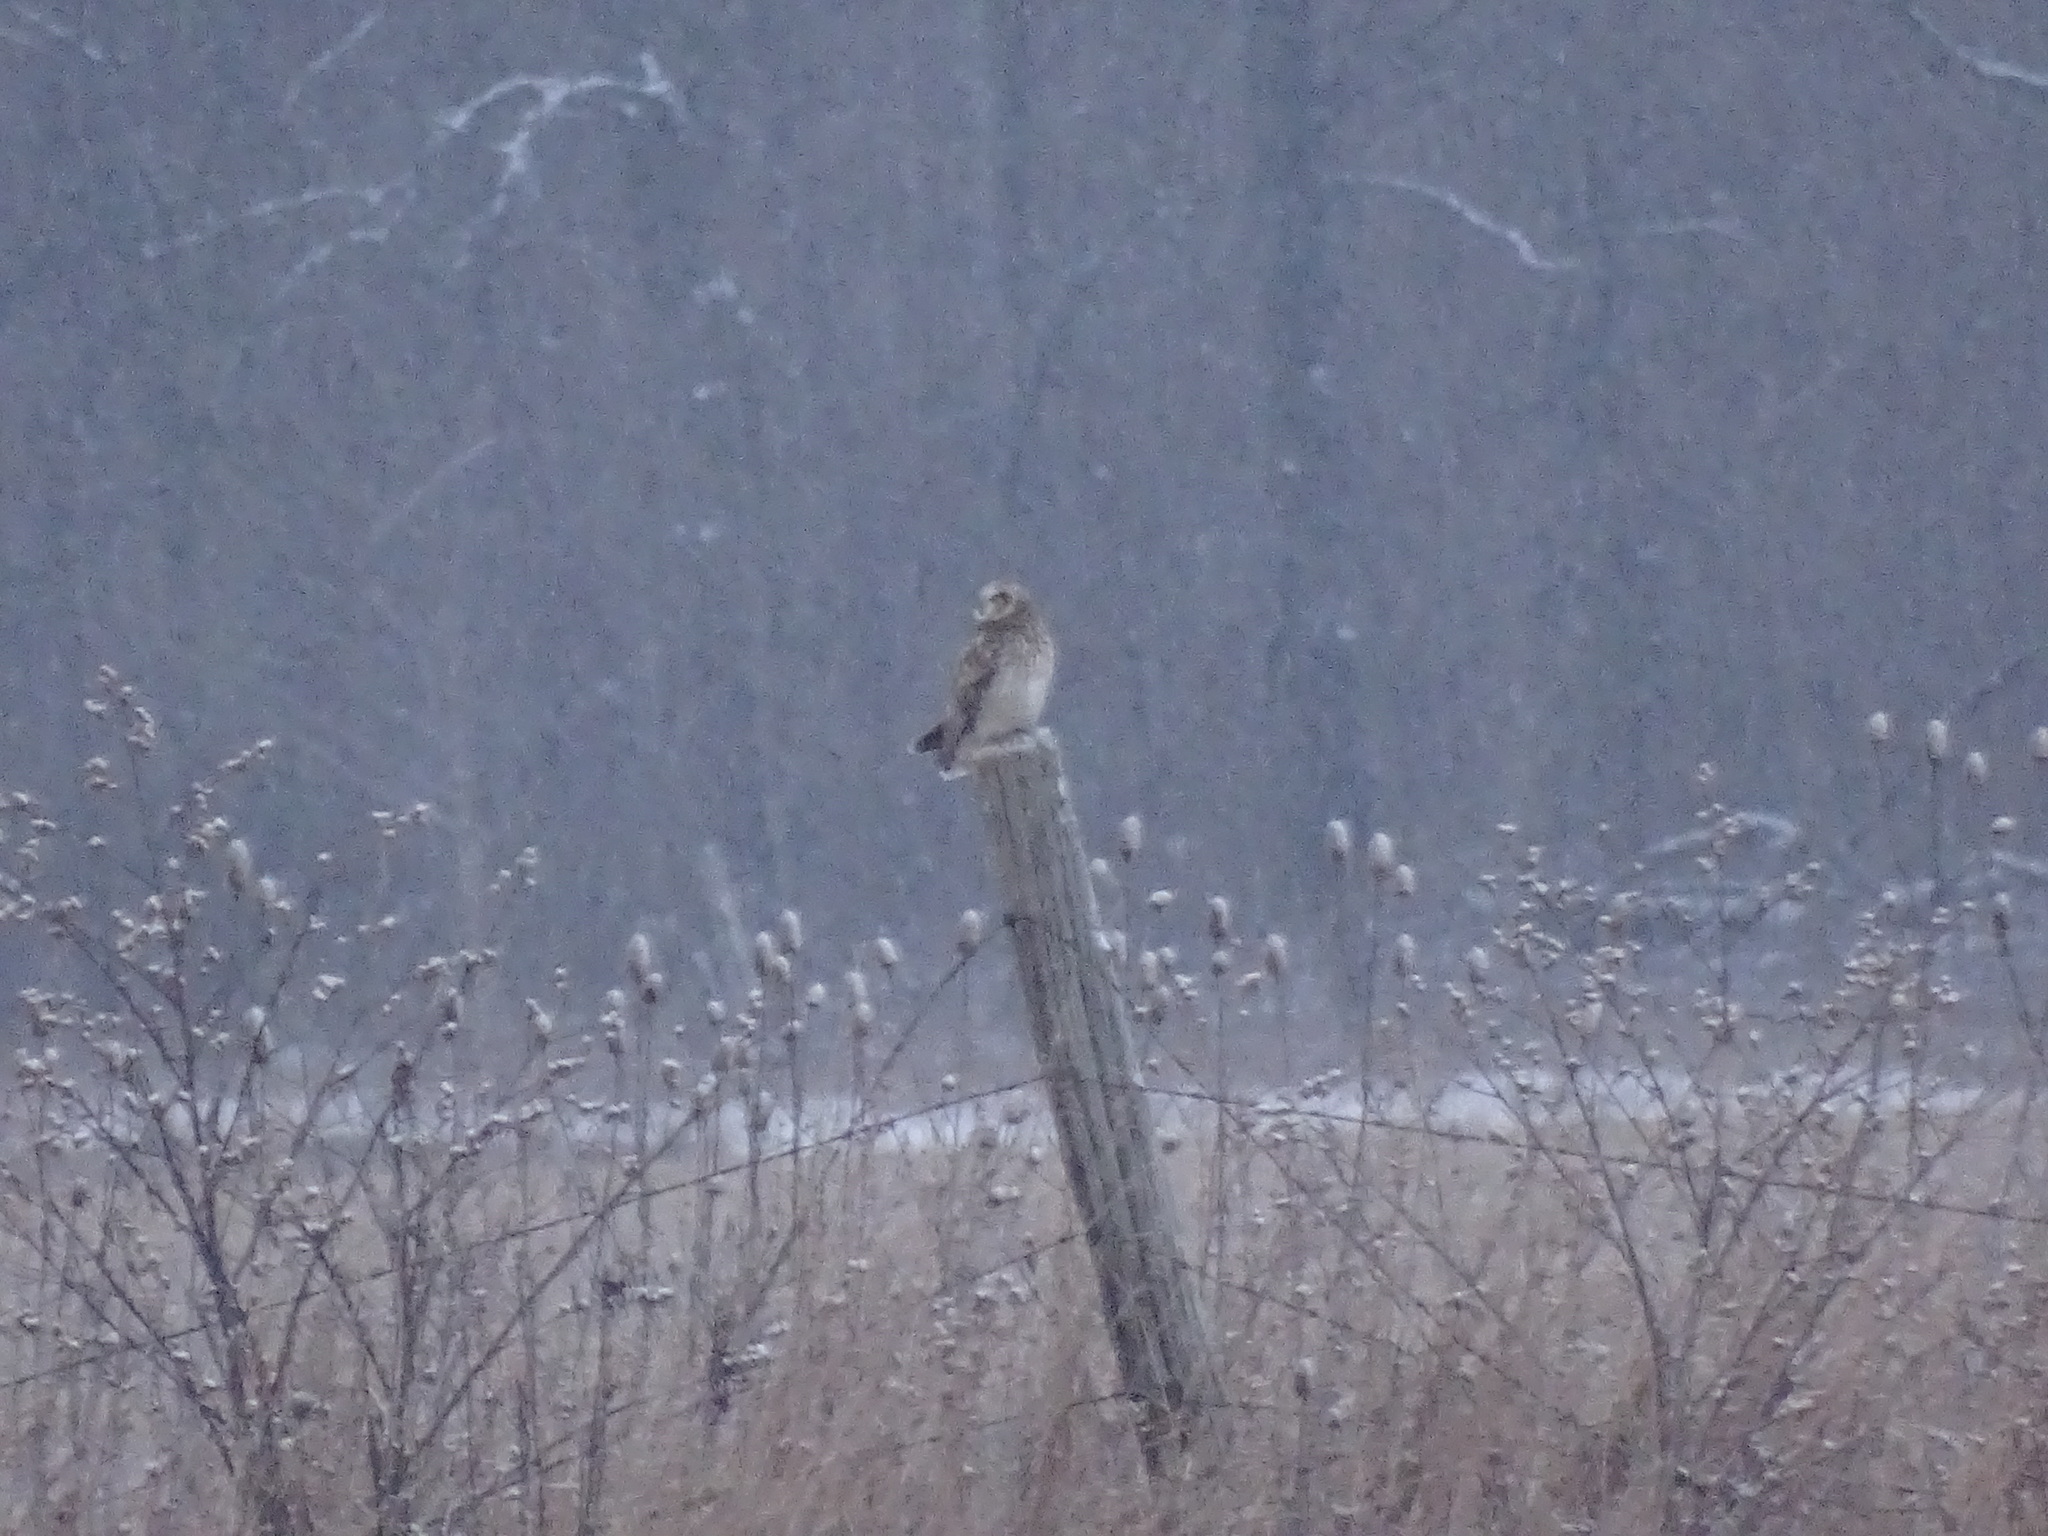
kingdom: Animalia
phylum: Chordata
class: Aves
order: Strigiformes
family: Strigidae
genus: Asio
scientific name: Asio flammeus
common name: Short-eared owl
